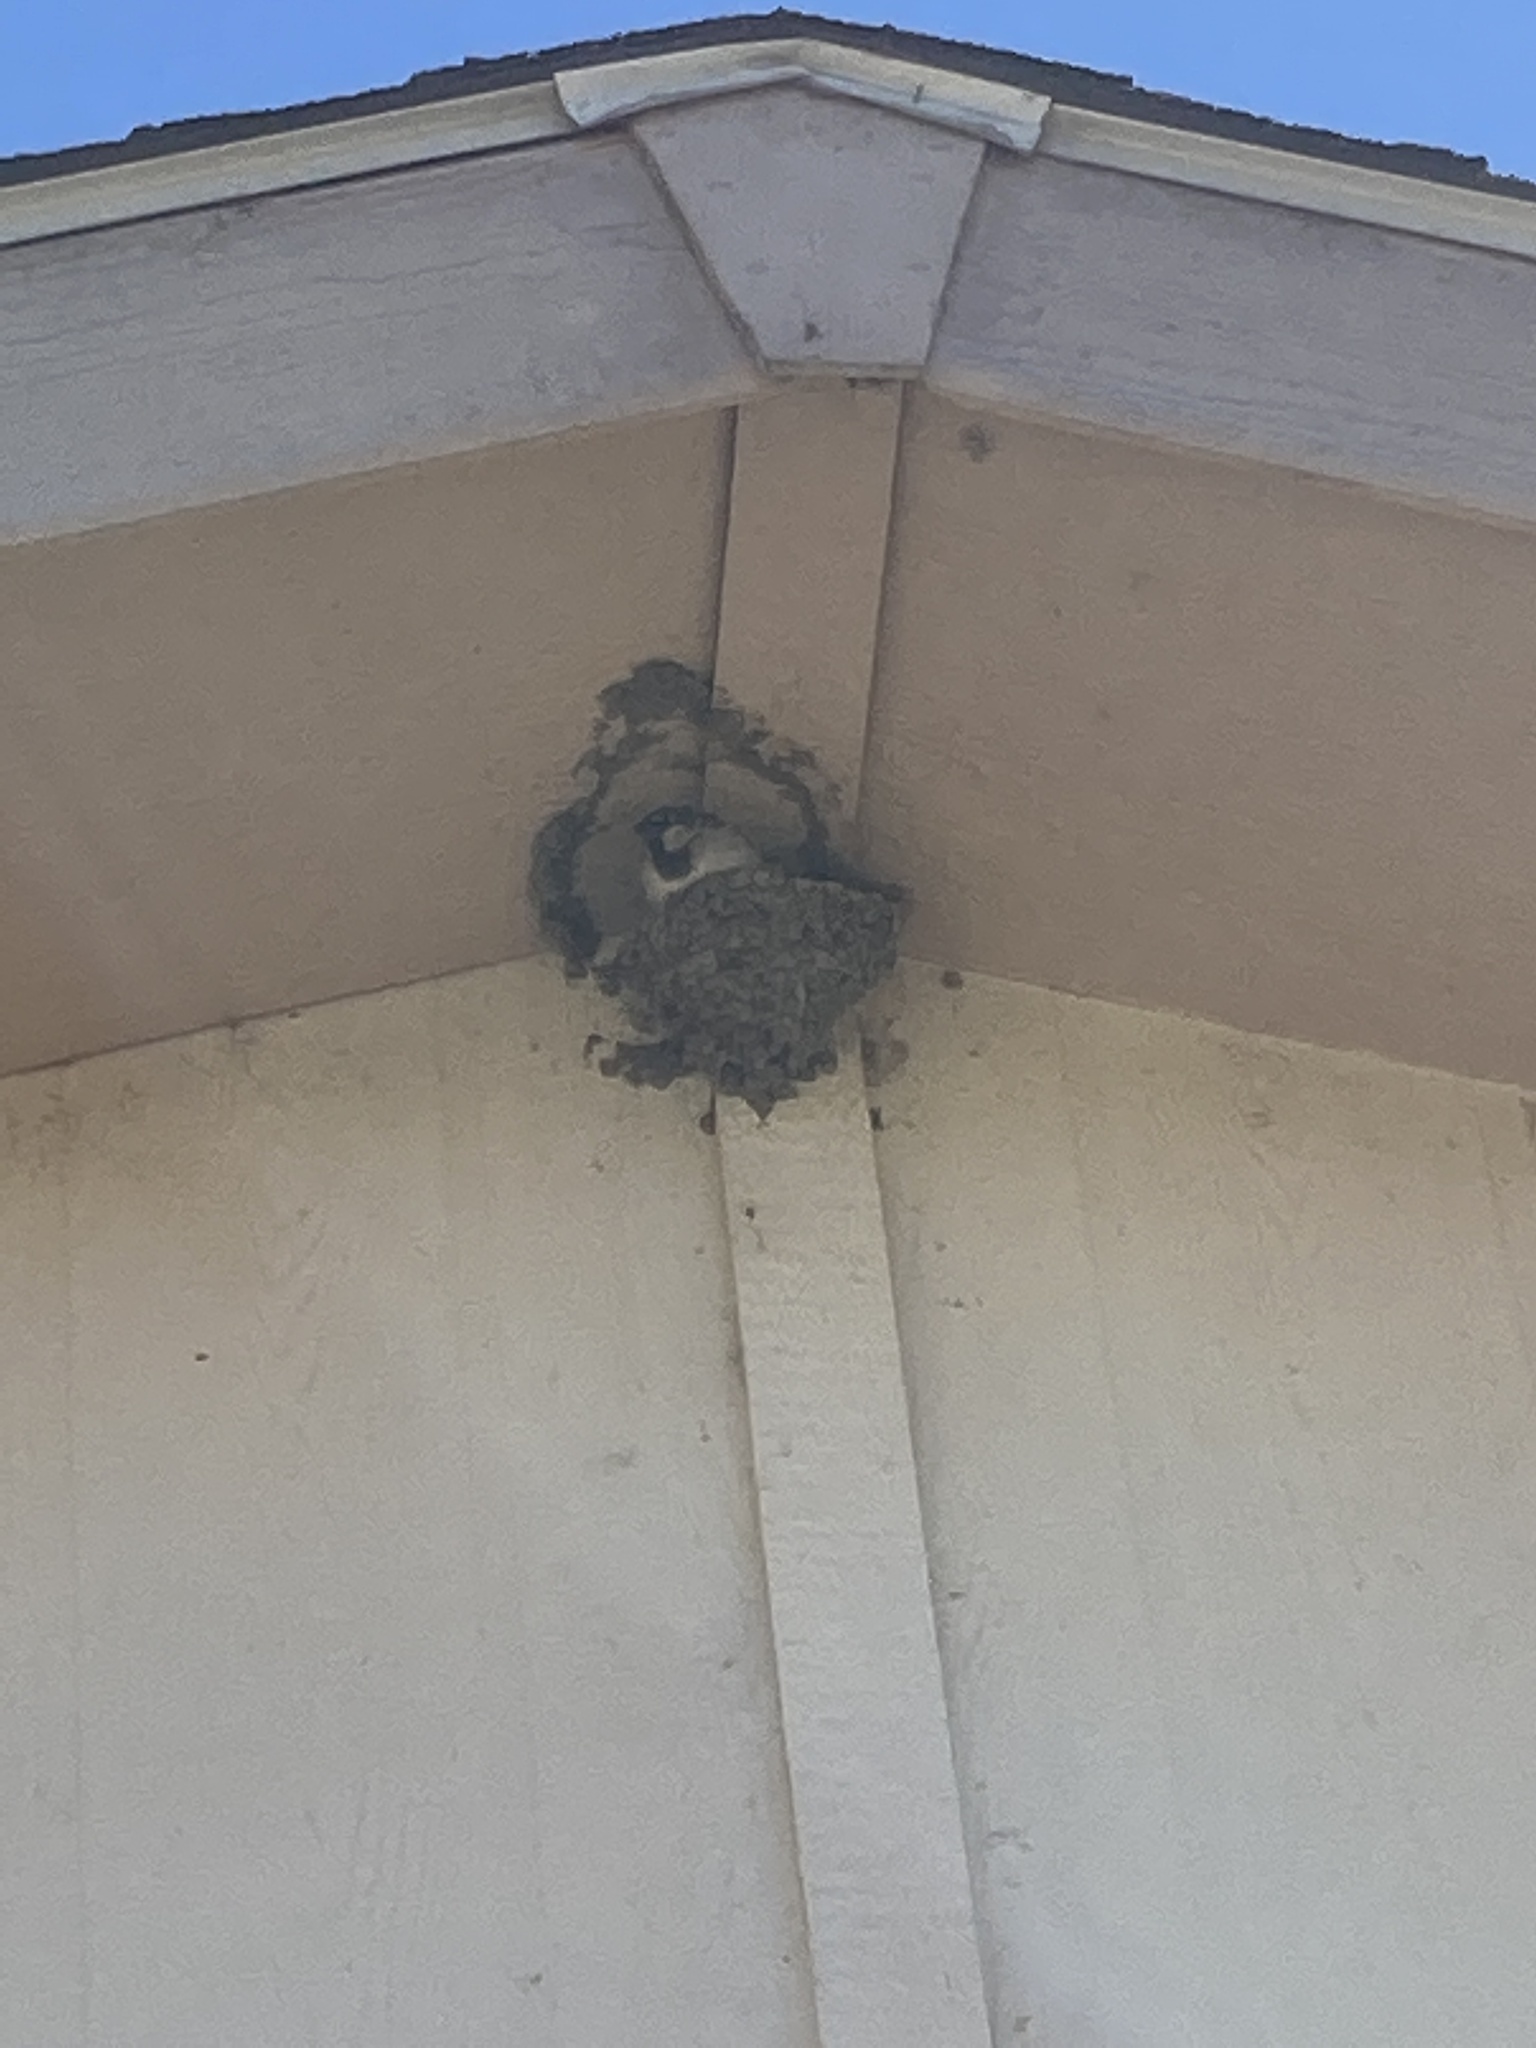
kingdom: Animalia
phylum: Chordata
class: Aves
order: Passeriformes
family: Hirundinidae
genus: Petrochelidon
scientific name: Petrochelidon pyrrhonota
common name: American cliff swallow
